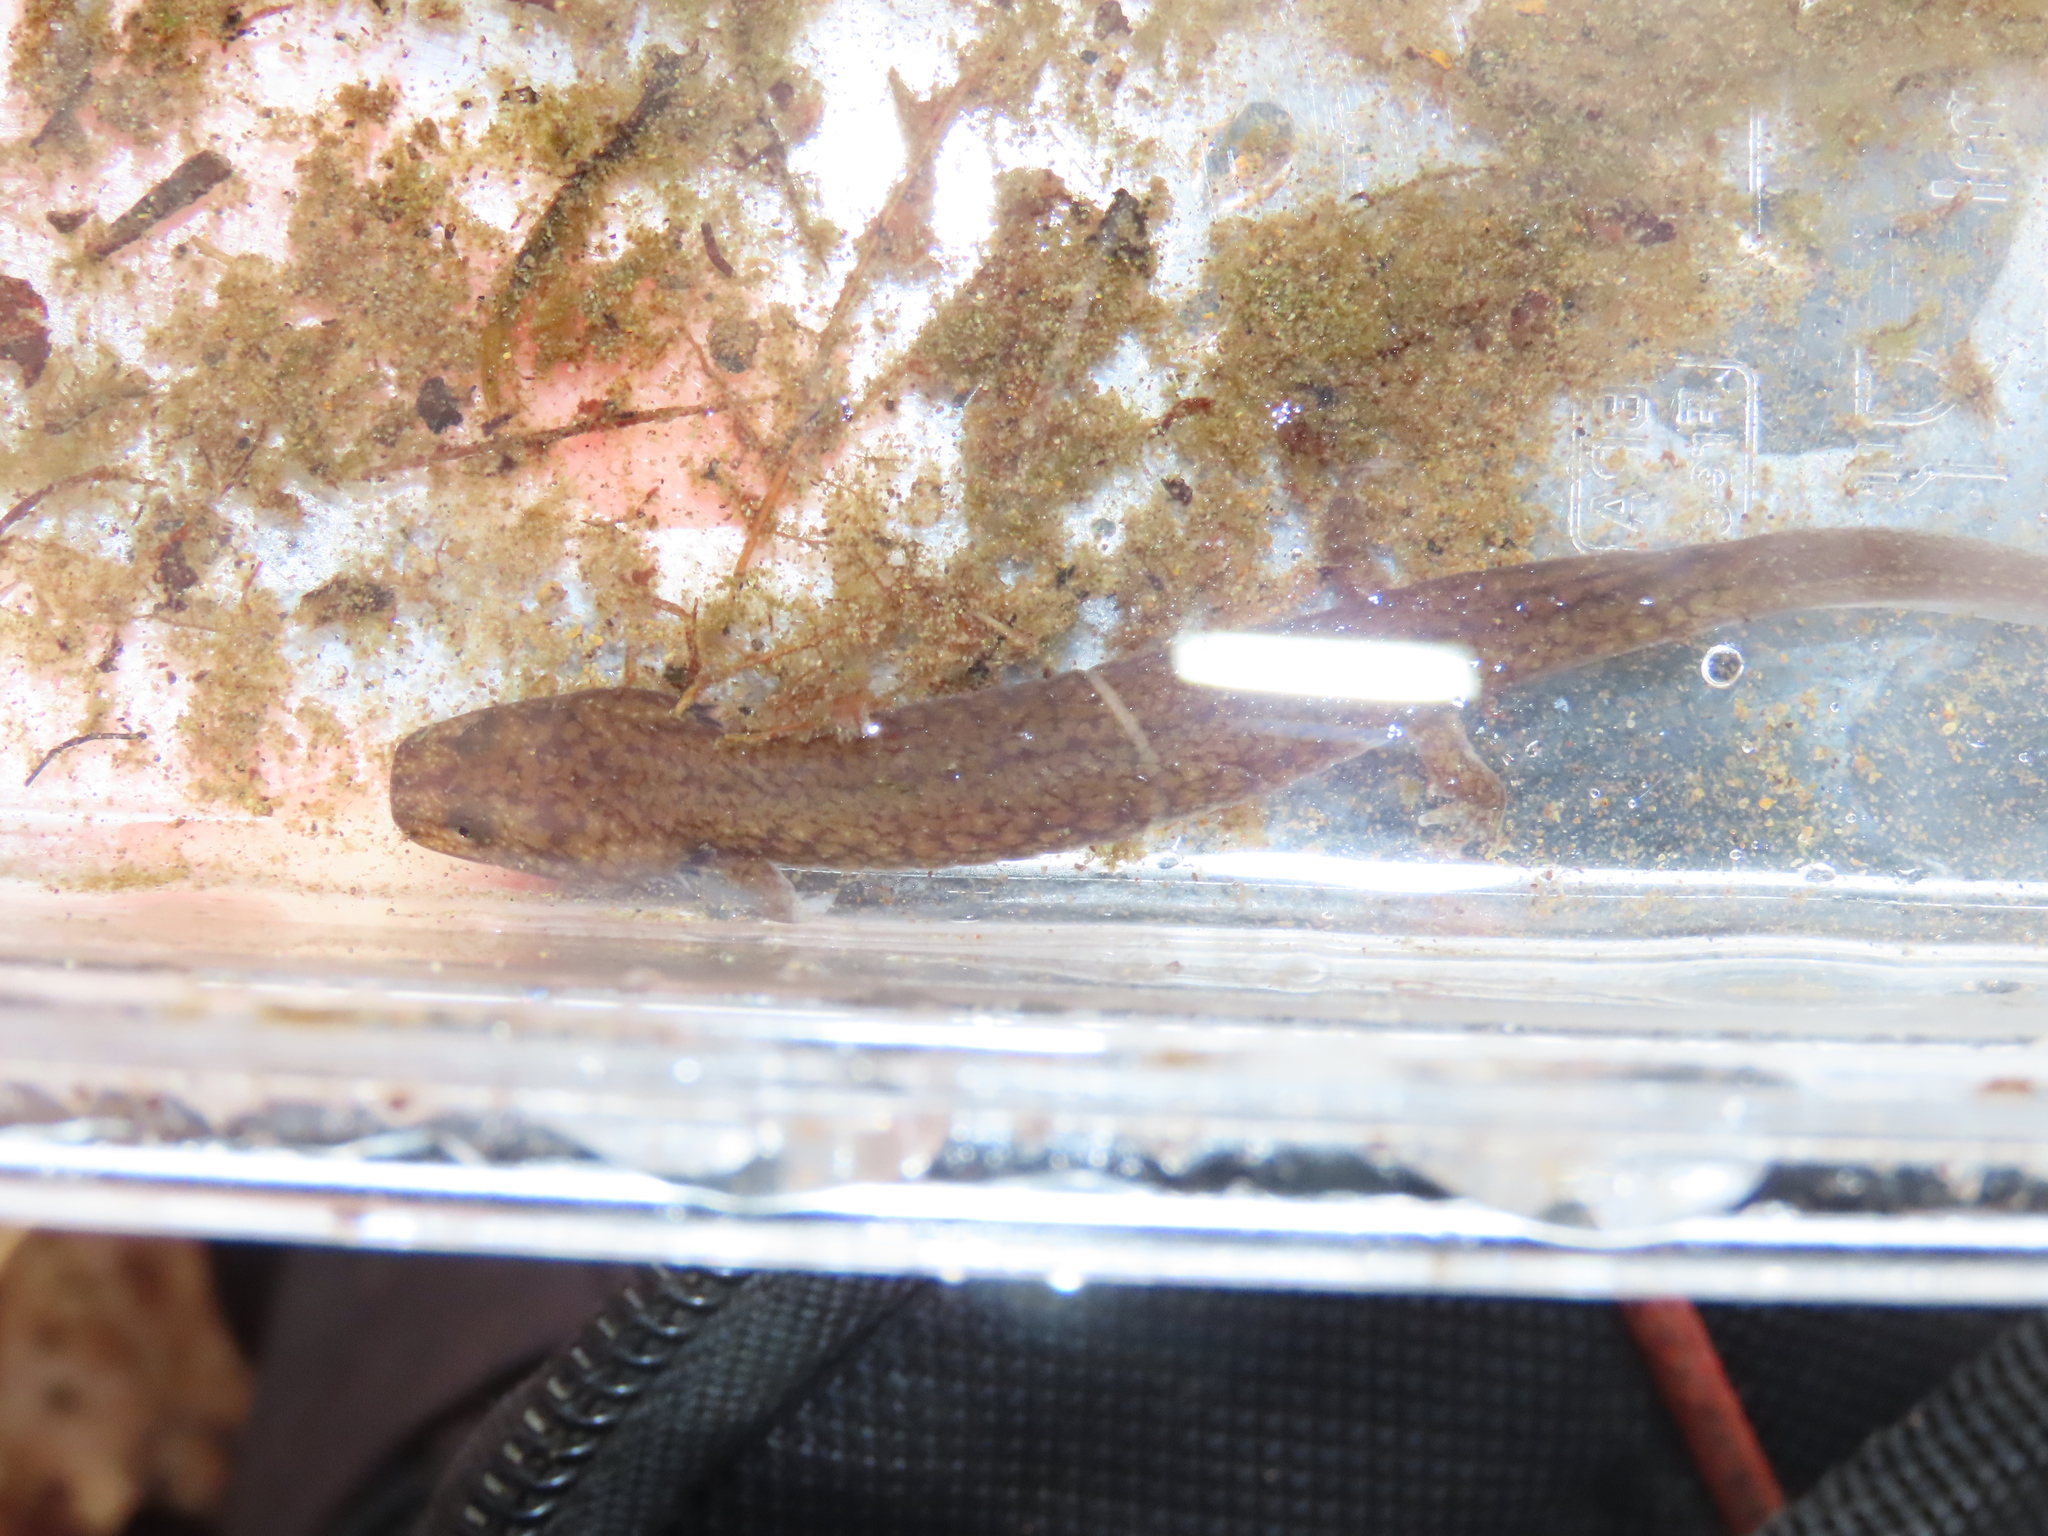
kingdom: Animalia
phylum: Chordata
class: Amphibia
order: Caudata
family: Plethodontidae
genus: Gyrinophilus
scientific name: Gyrinophilus porphyriticus
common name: Spring salamander
